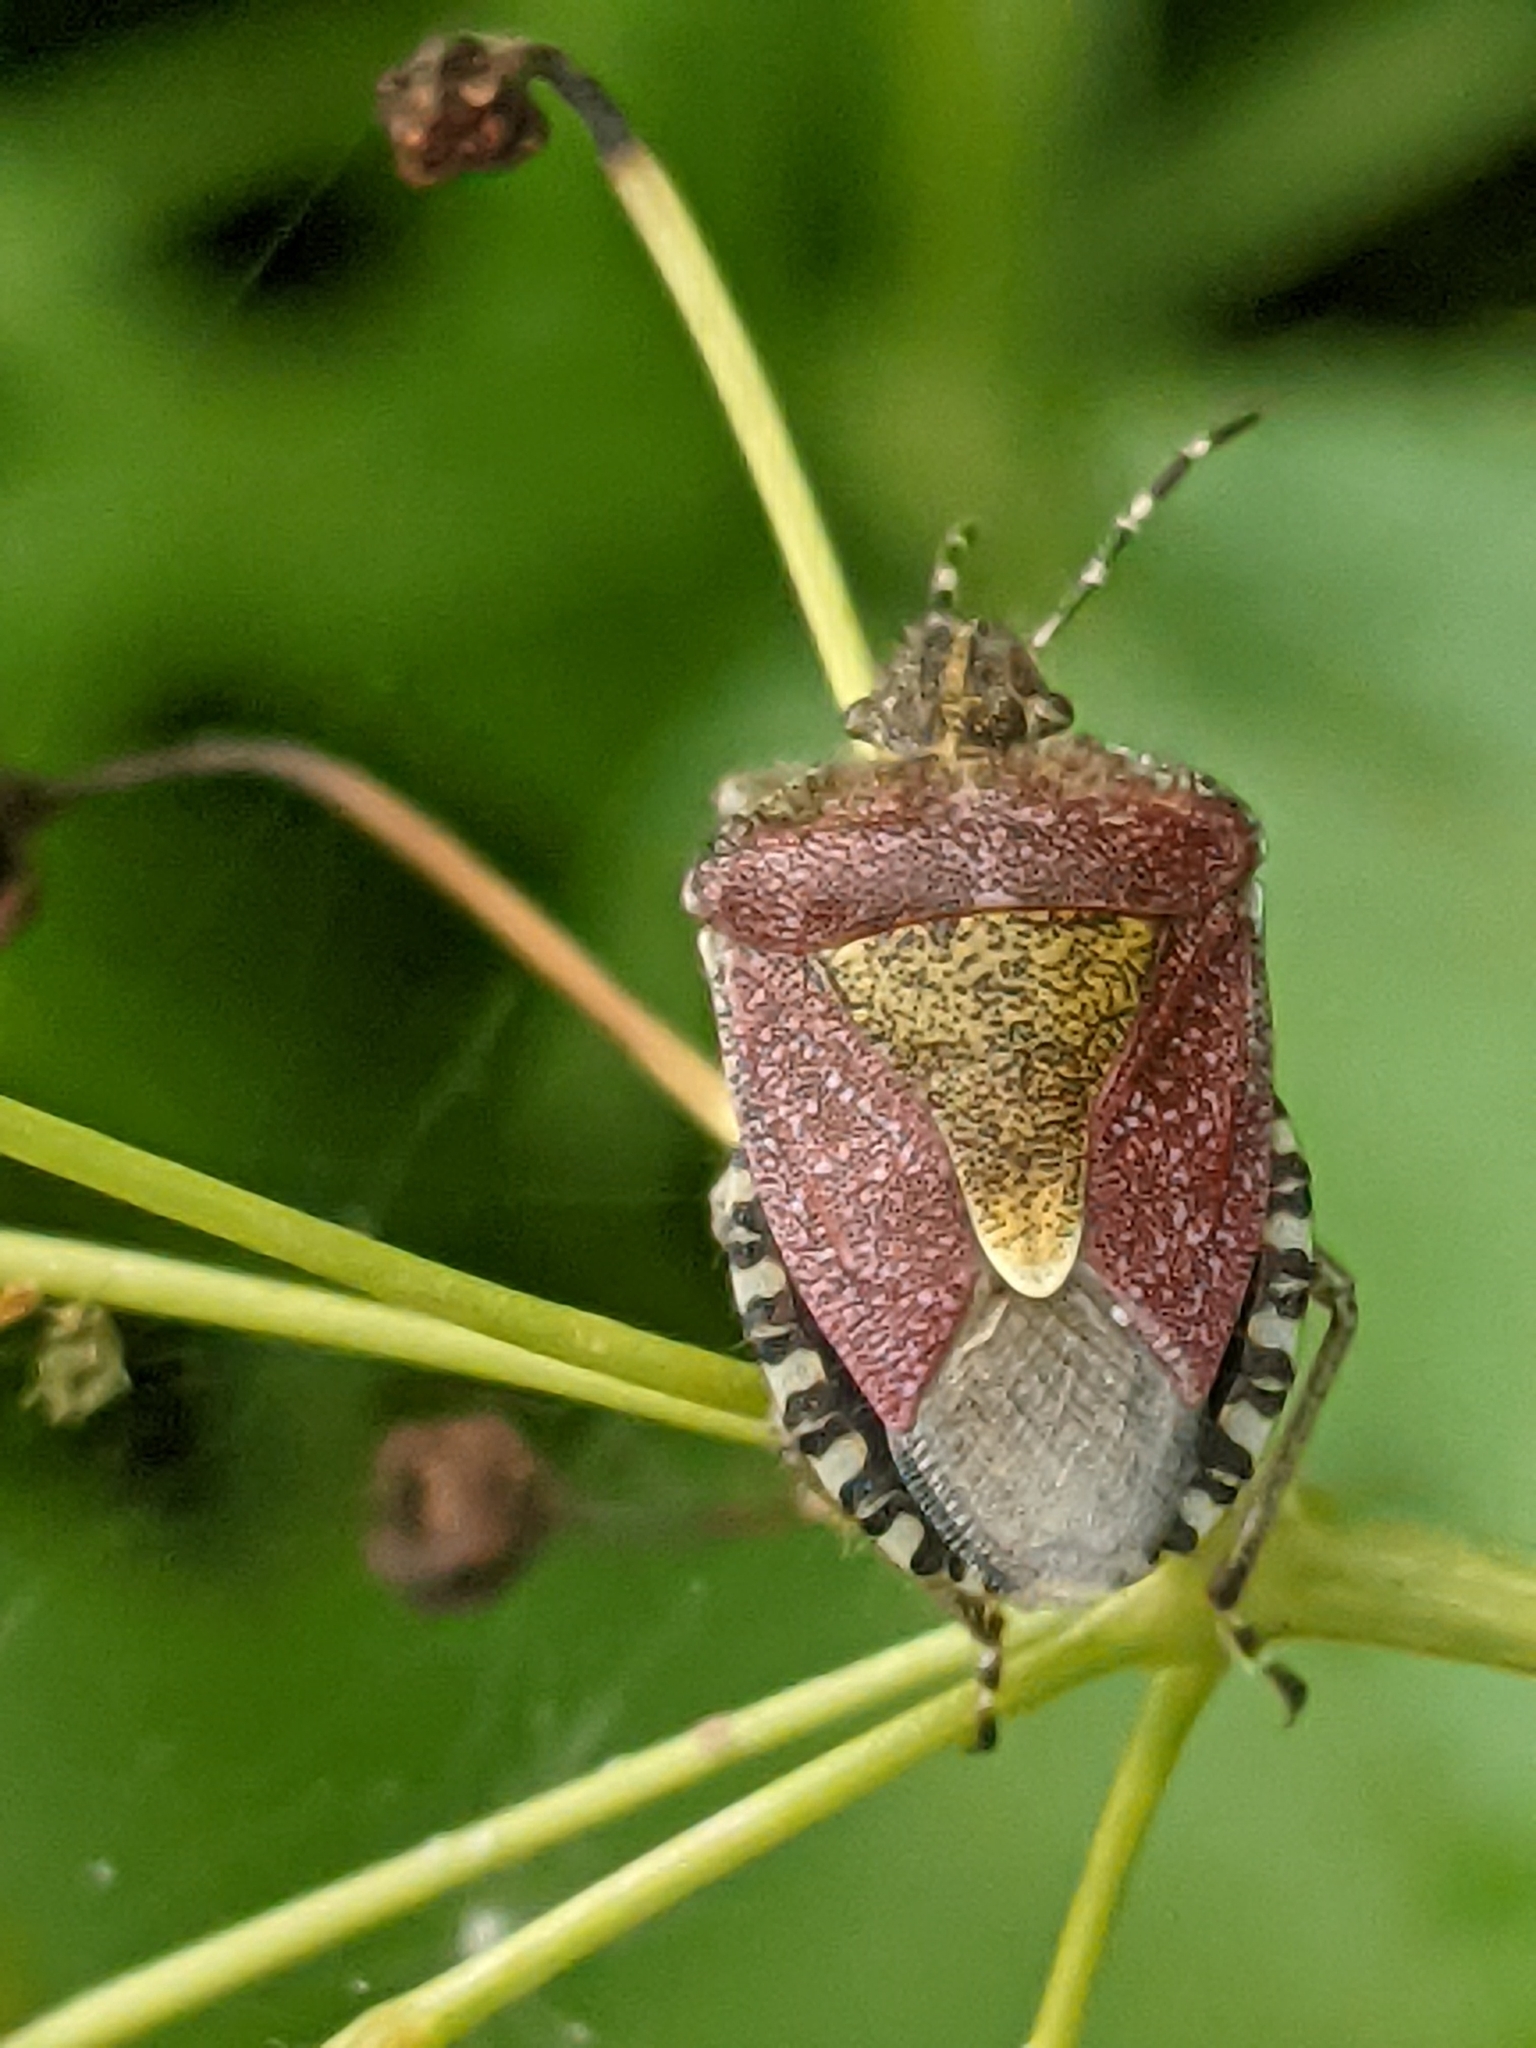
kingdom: Animalia
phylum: Arthropoda
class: Insecta
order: Hemiptera
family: Pentatomidae
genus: Dolycoris
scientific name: Dolycoris baccarum
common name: Sloe bug
